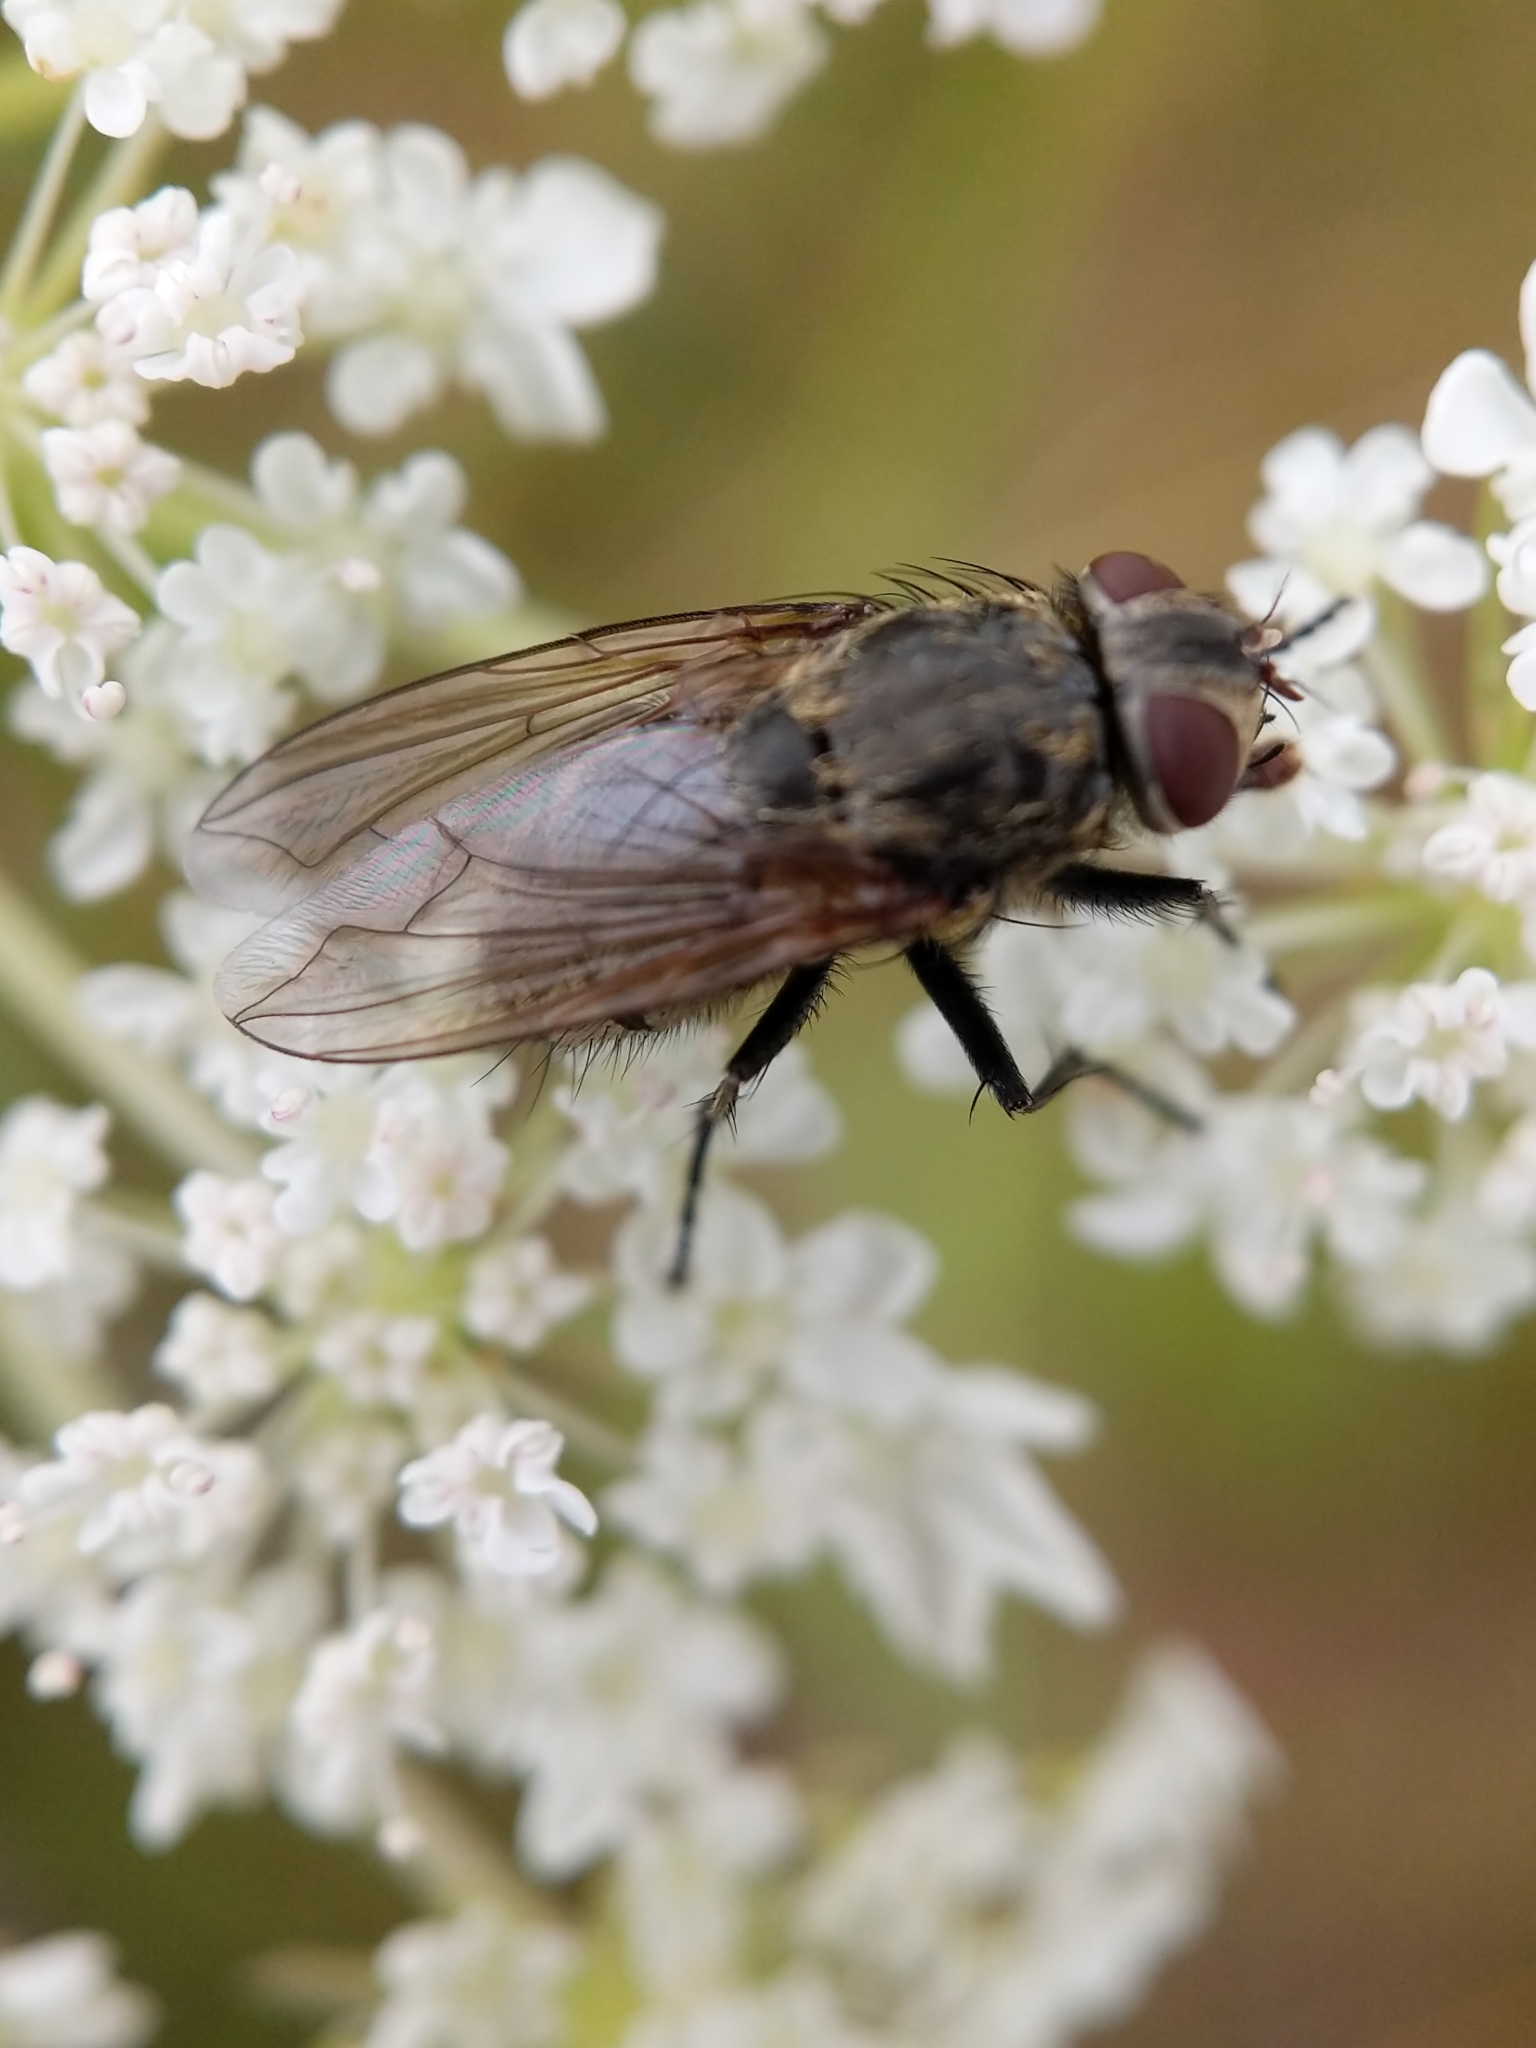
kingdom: Animalia
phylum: Arthropoda
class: Insecta
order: Diptera
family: Polleniidae
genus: Pollenia
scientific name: Pollenia
